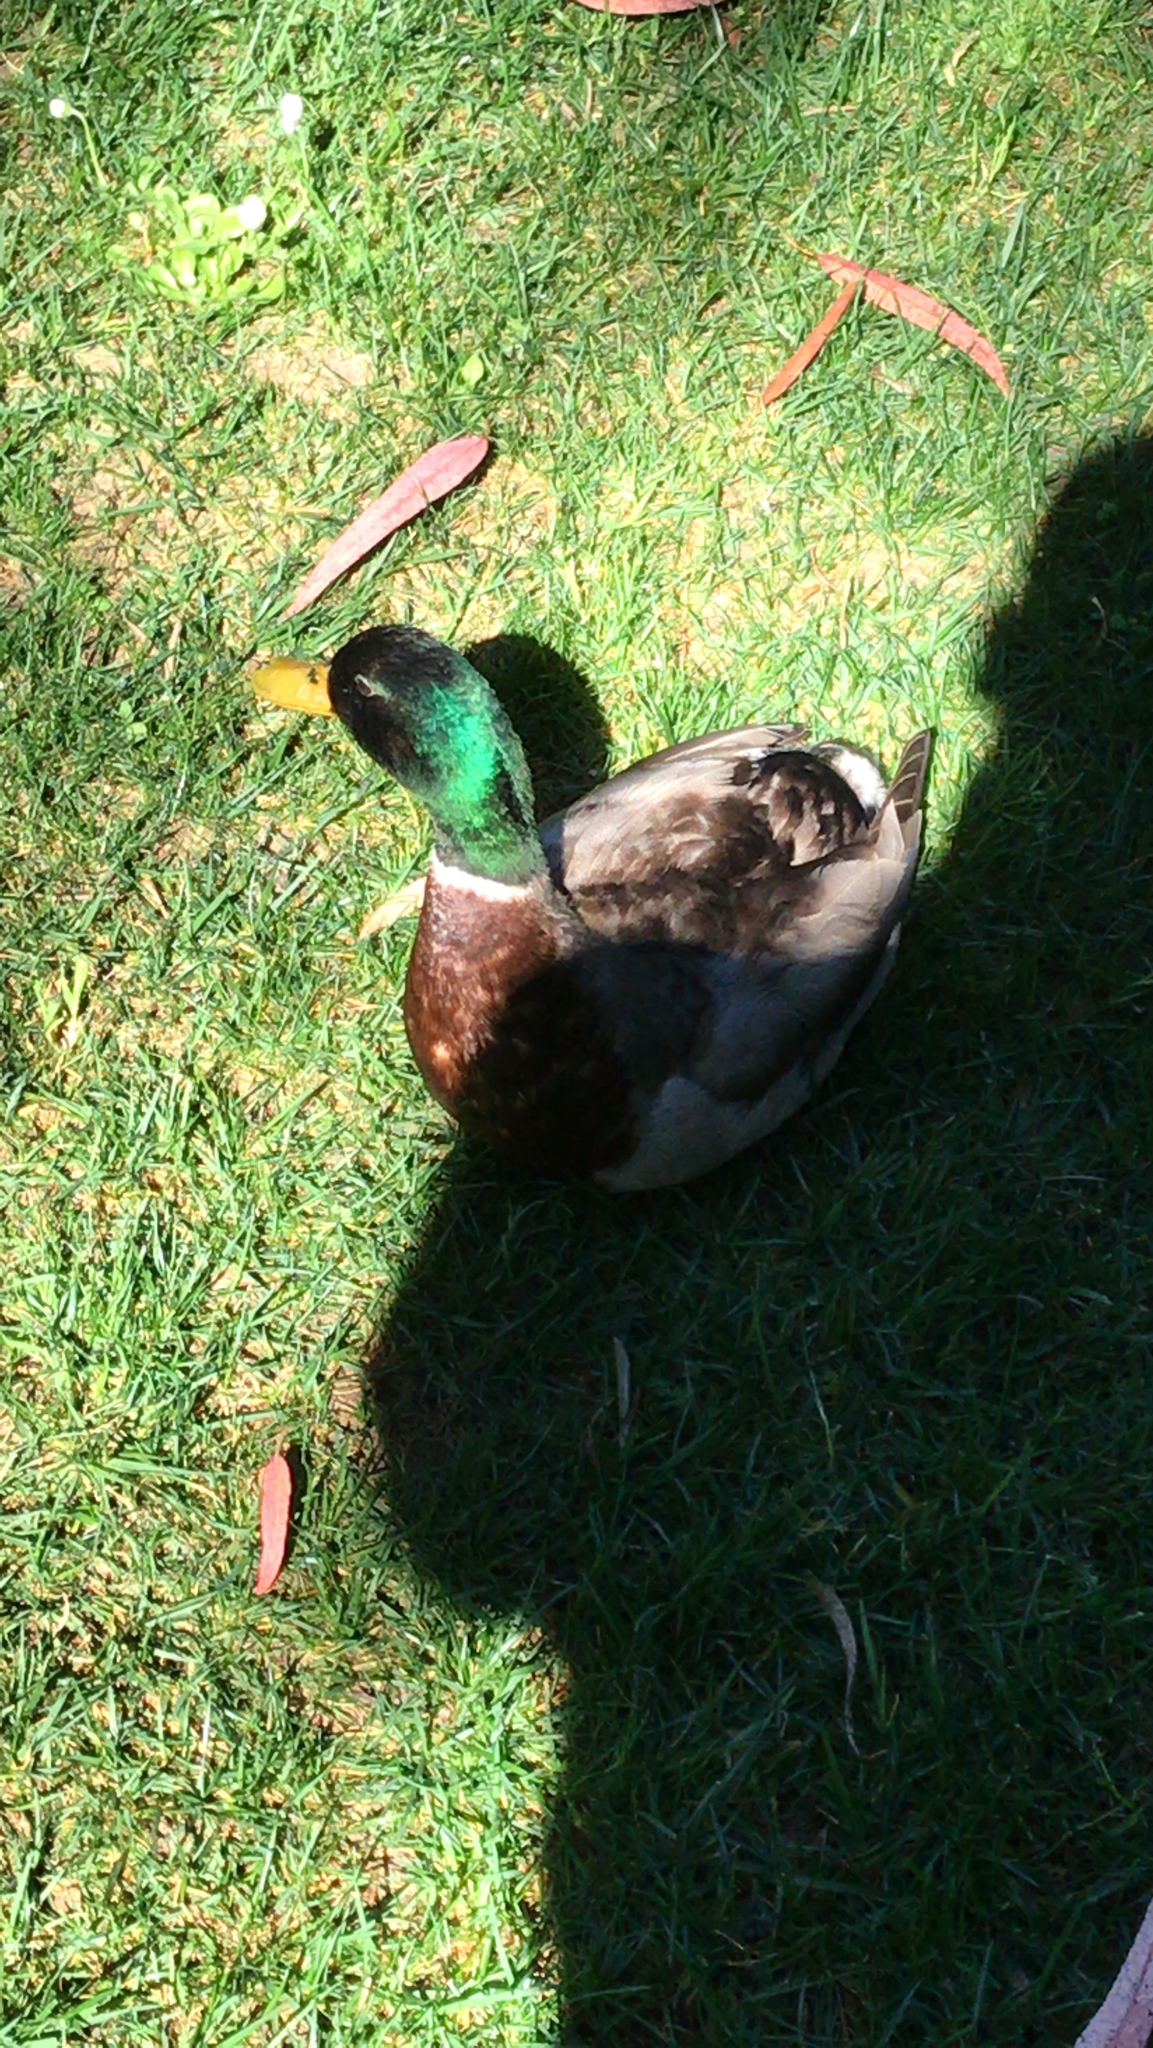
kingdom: Animalia
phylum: Chordata
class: Aves
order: Anseriformes
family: Anatidae
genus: Anas
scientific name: Anas platyrhynchos
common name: Mallard
